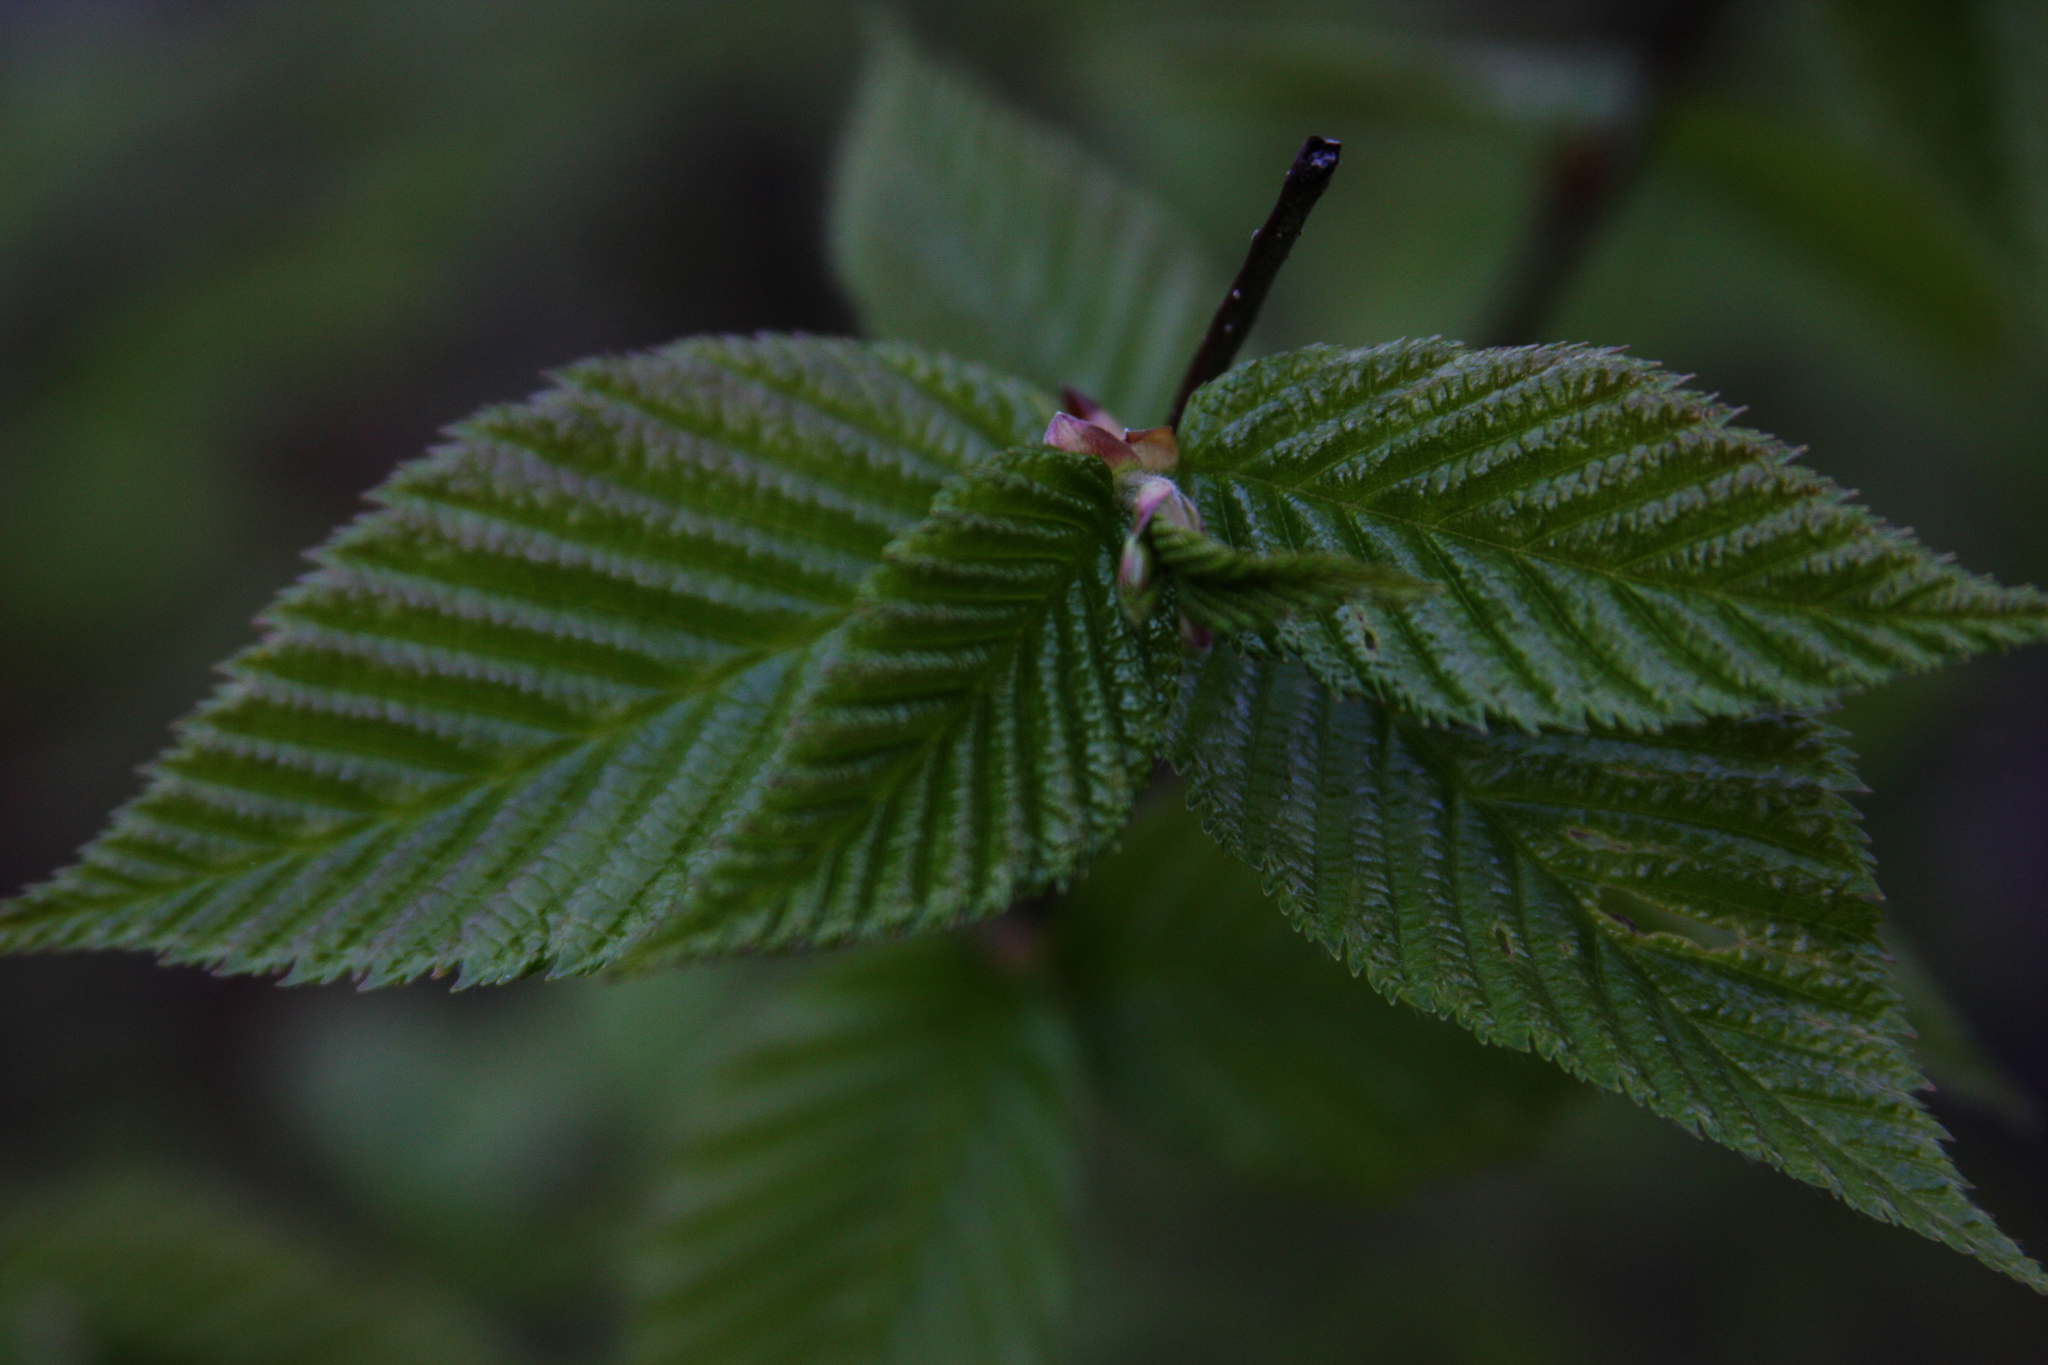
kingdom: Plantae
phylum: Tracheophyta
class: Magnoliopsida
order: Fagales
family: Betulaceae
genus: Betula
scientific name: Betula alleghaniensis
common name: Yellow birch
